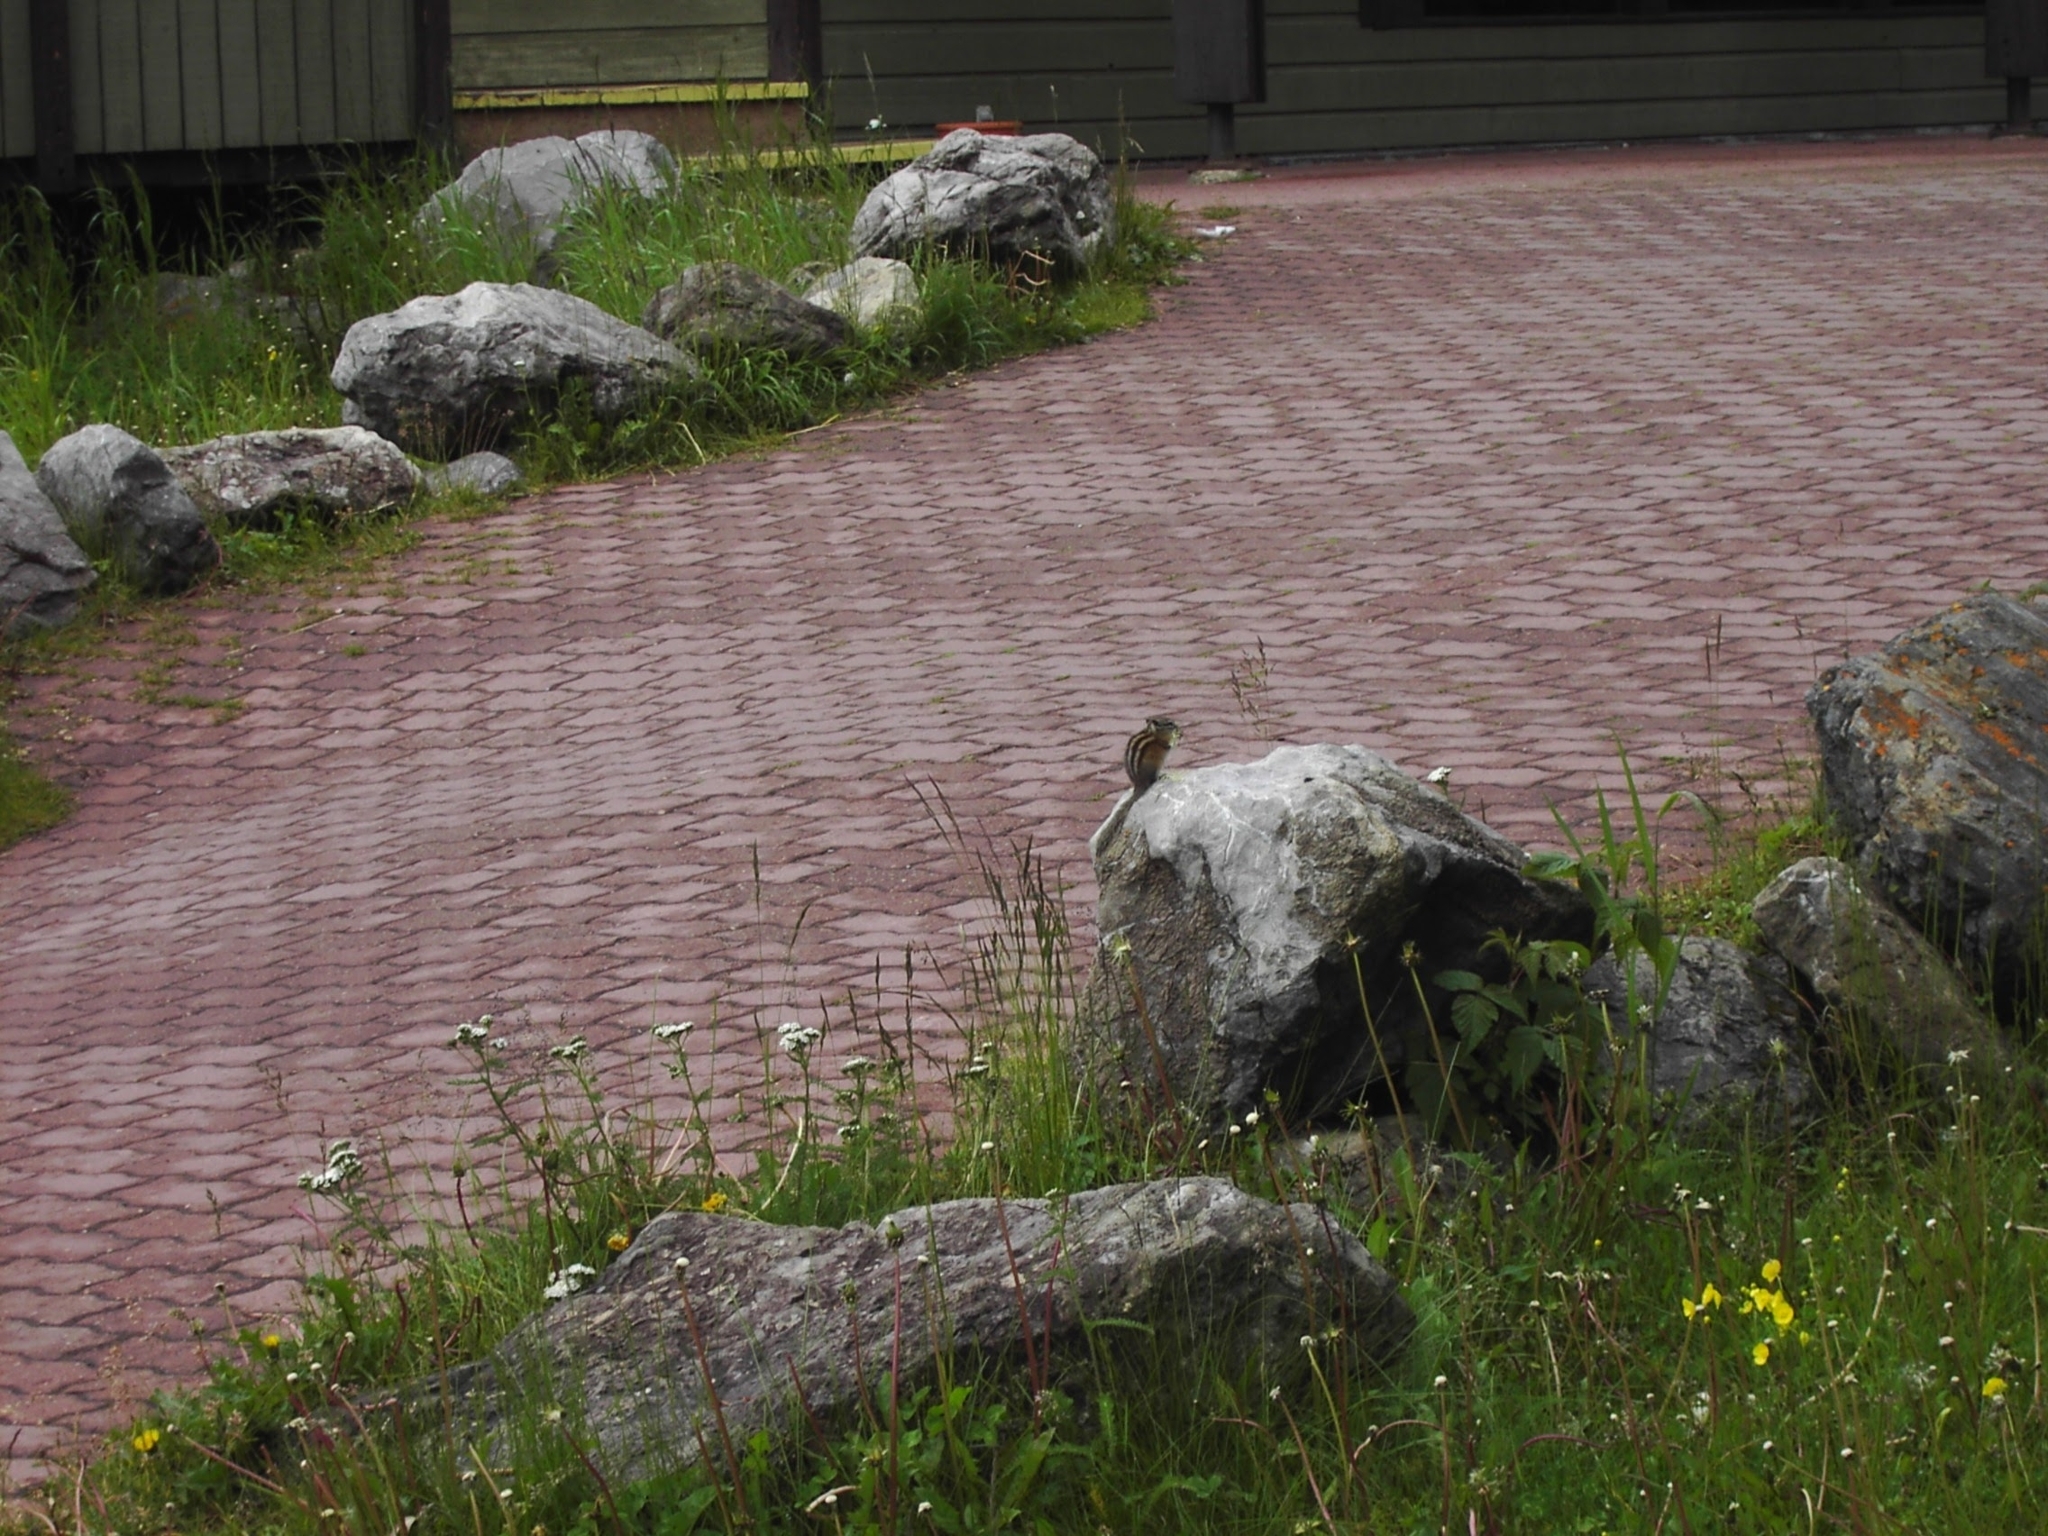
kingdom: Animalia
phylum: Chordata
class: Mammalia
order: Rodentia
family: Sciuridae
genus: Tamias
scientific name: Tamias minimus
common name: Least chipmunk
